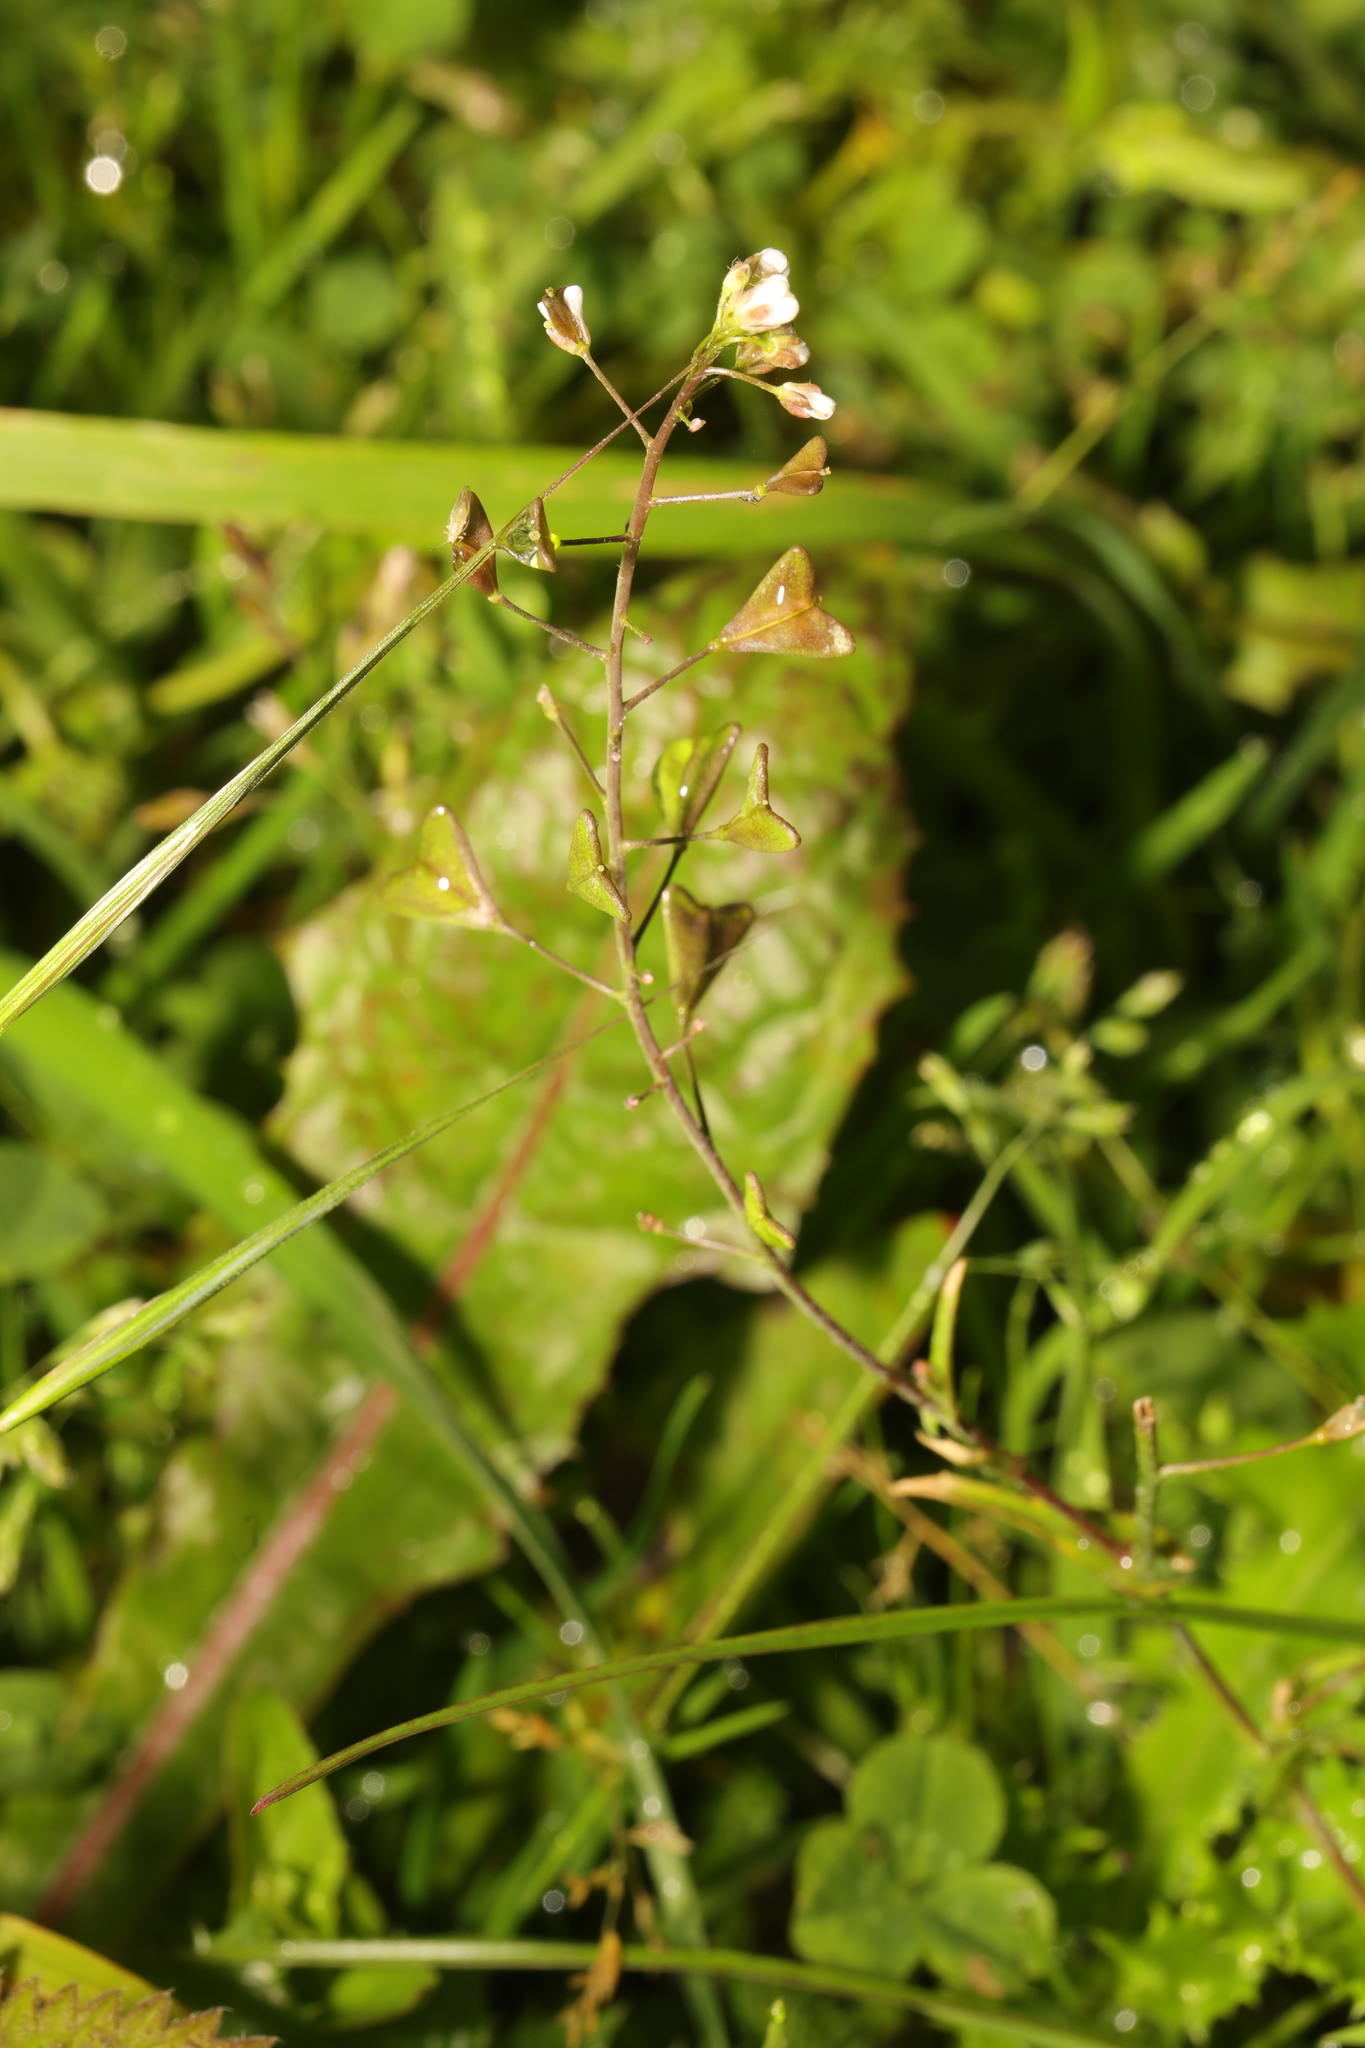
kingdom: Plantae
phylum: Tracheophyta
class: Magnoliopsida
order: Brassicales
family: Brassicaceae
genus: Capsella
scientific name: Capsella bursa-pastoris
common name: Shepherd's purse
